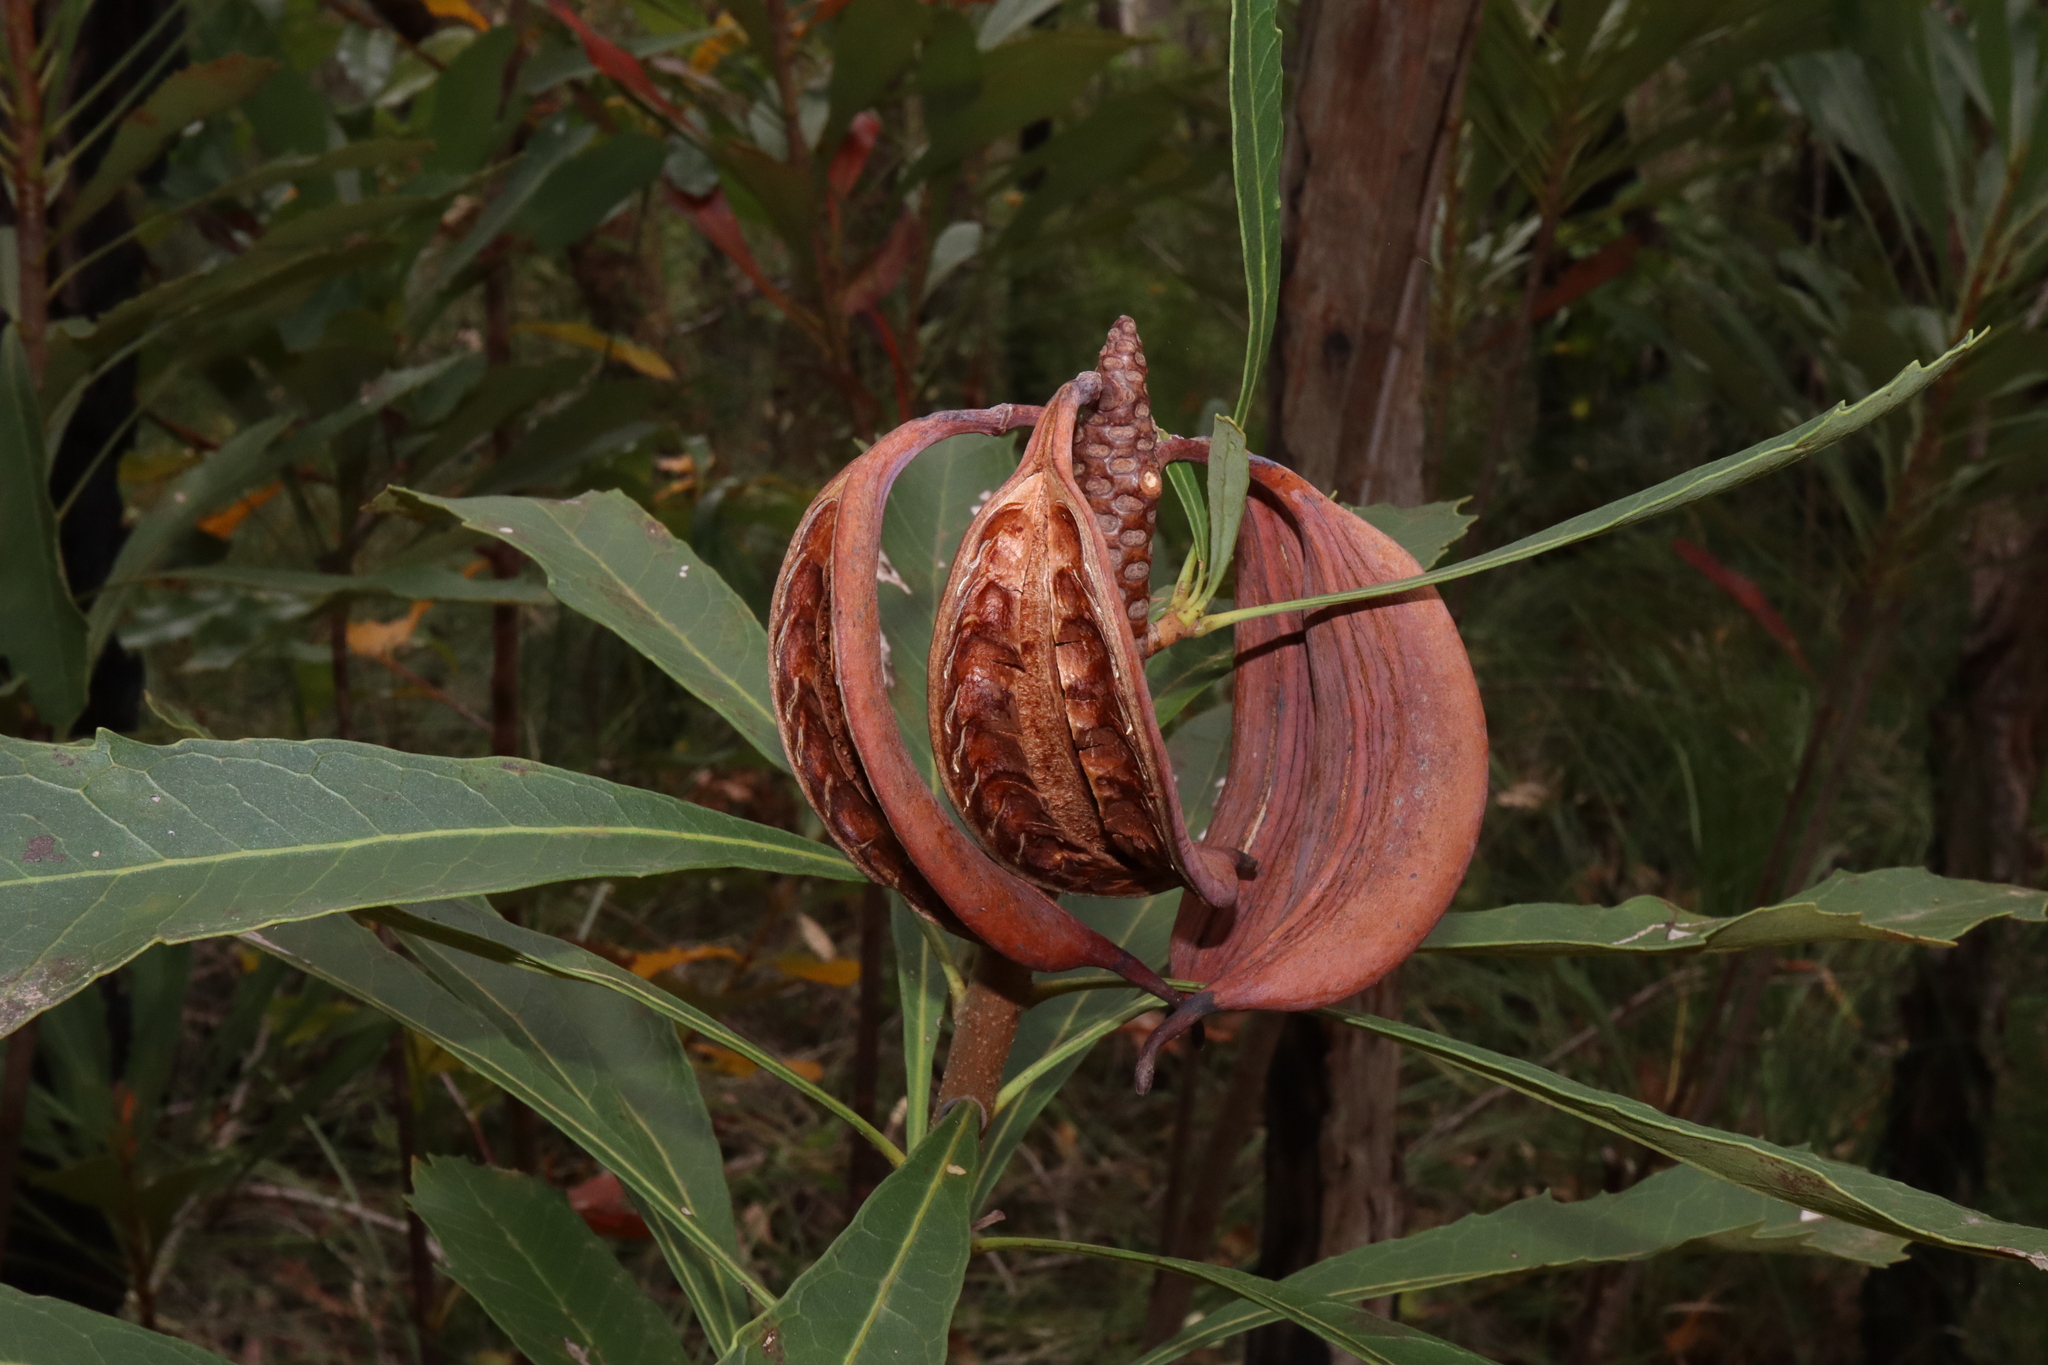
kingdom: Plantae
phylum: Tracheophyta
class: Magnoliopsida
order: Proteales
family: Proteaceae
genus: Telopea
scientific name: Telopea speciosissima
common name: New south wales waratah
